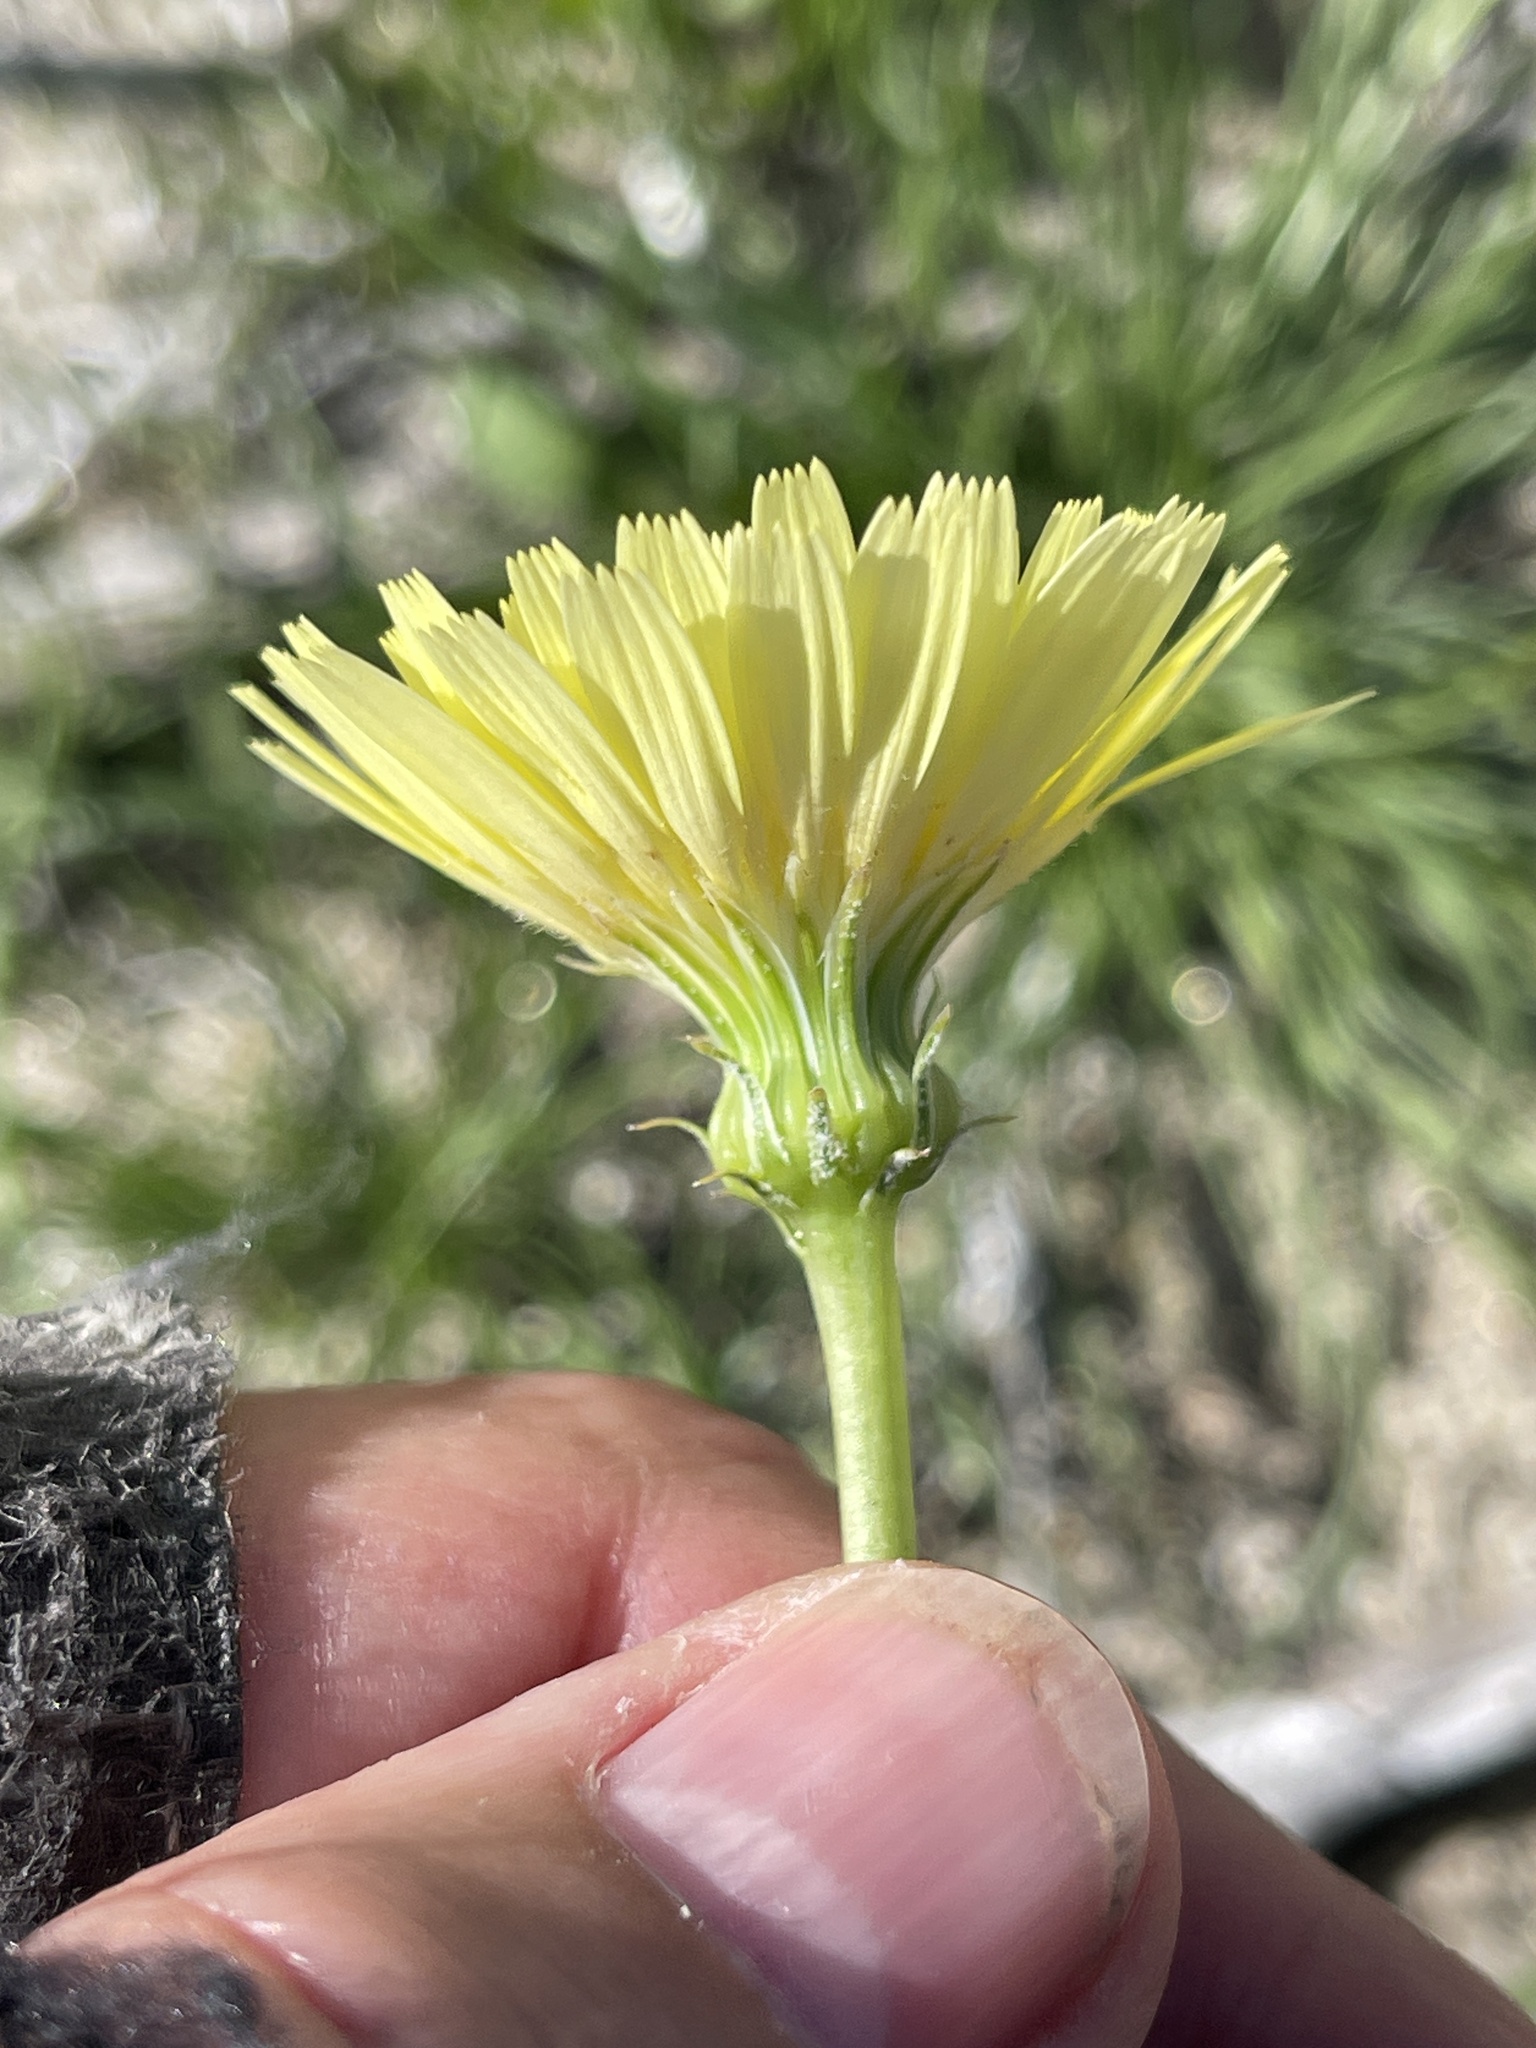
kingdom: Plantae
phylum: Tracheophyta
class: Magnoliopsida
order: Asterales
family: Asteraceae
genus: Malacothrix
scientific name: Malacothrix glabrata
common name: Smooth desert-dandelion
